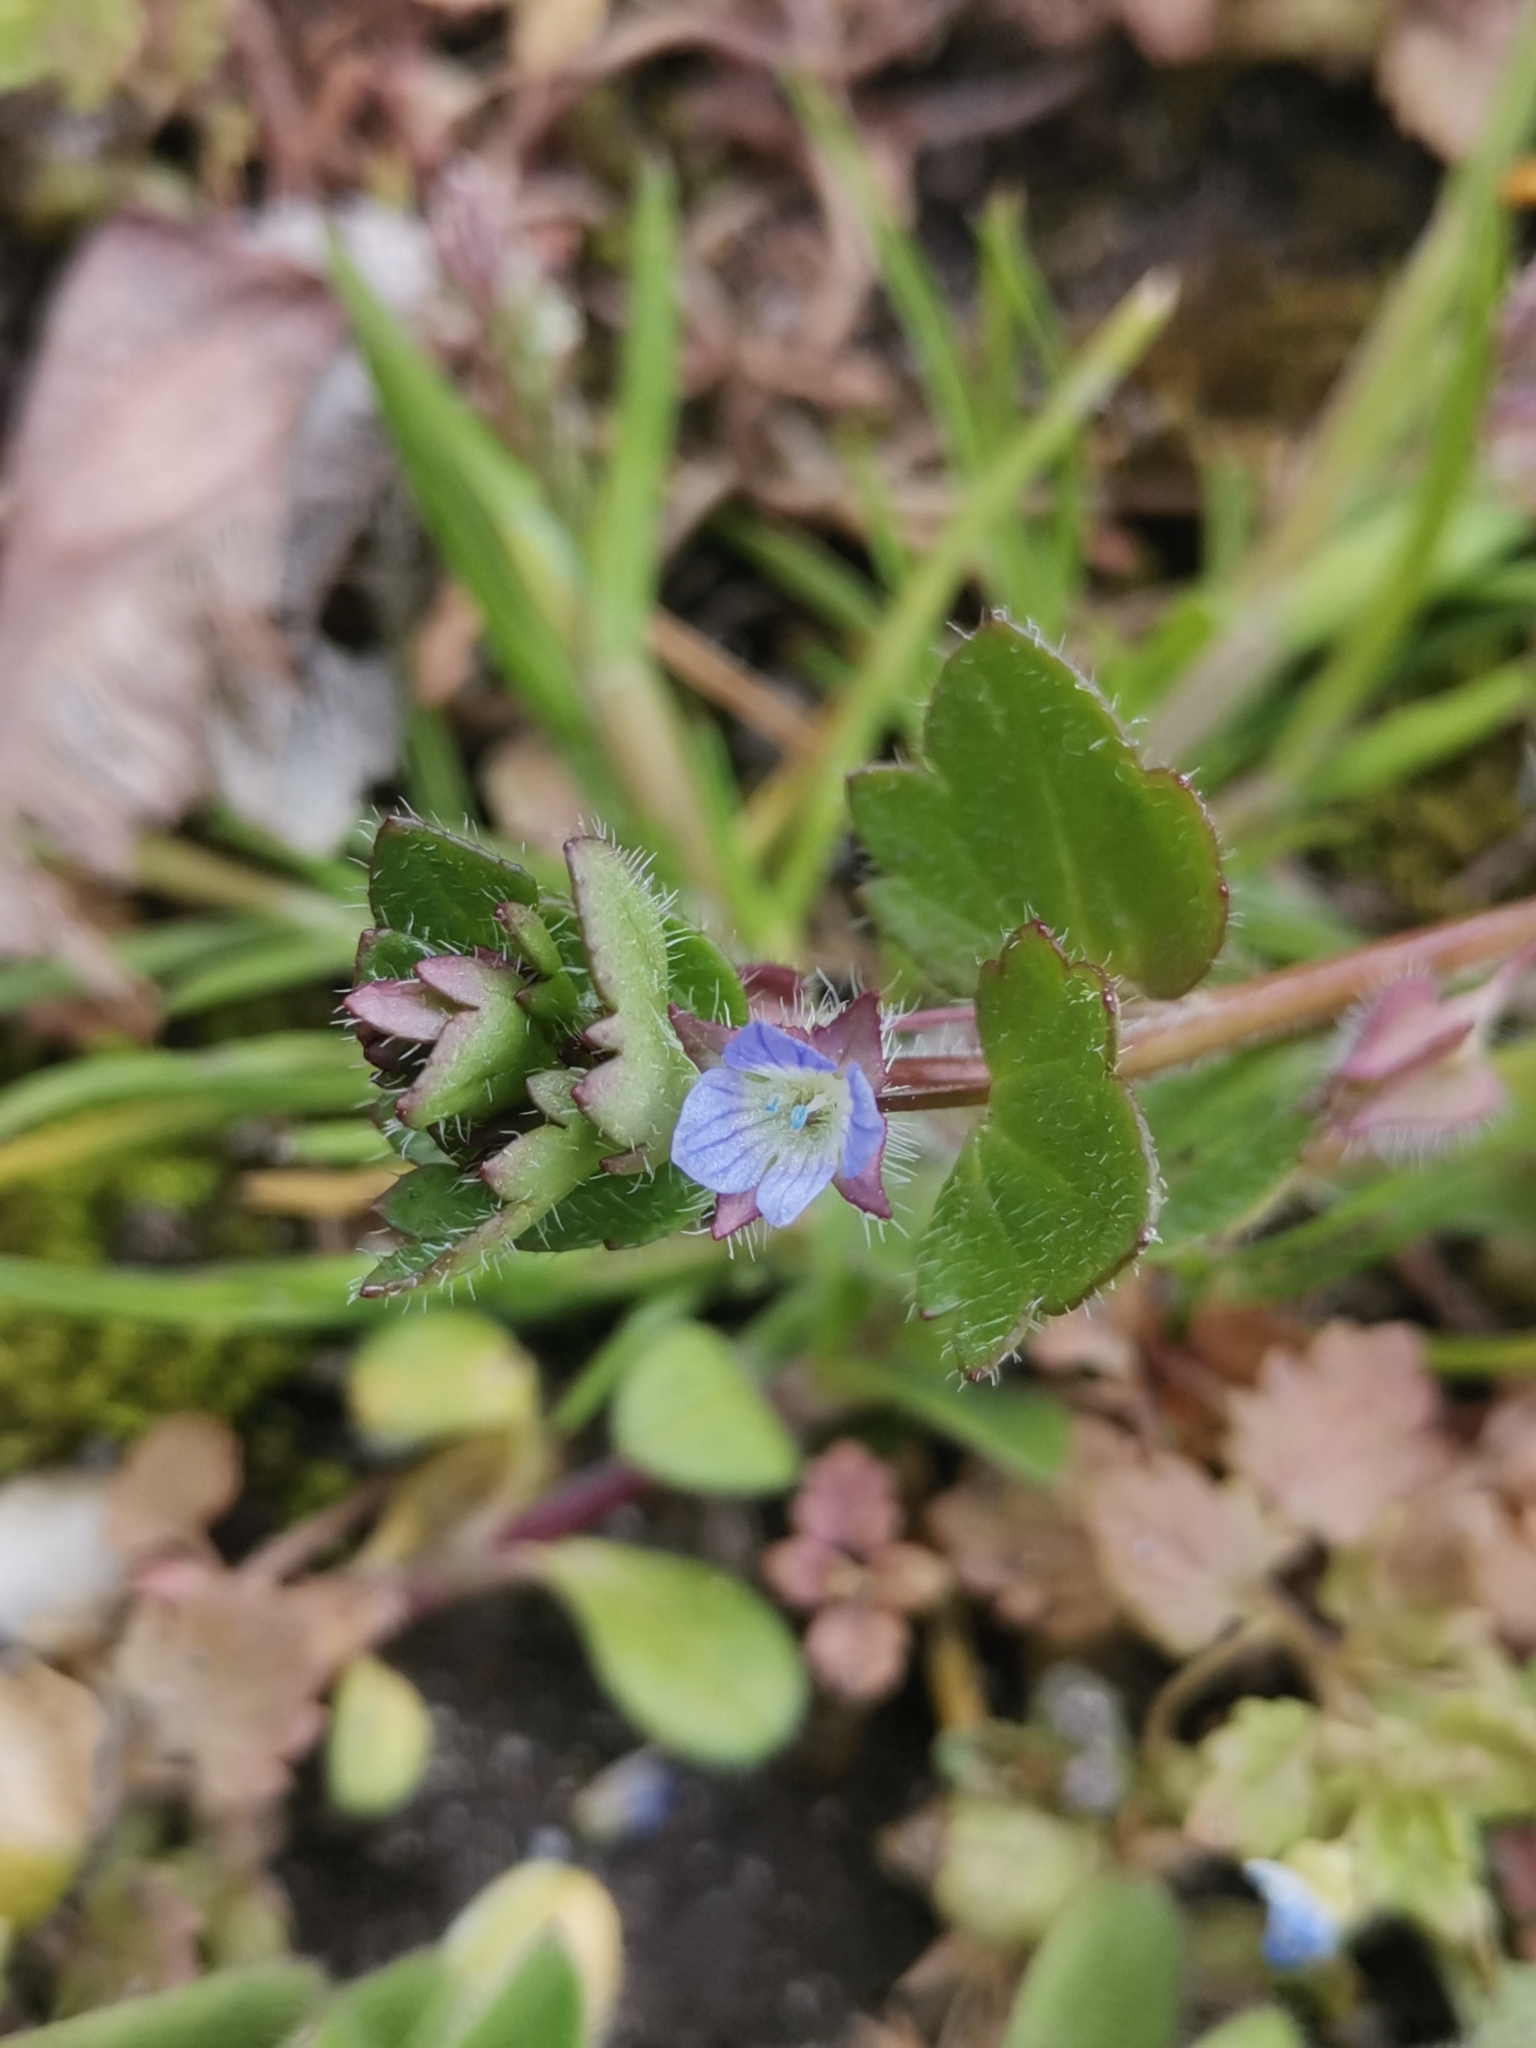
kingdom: Plantae
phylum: Tracheophyta
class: Magnoliopsida
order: Lamiales
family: Plantaginaceae
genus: Veronica
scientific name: Veronica hederifolia
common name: Ivy-leaved speedwell
